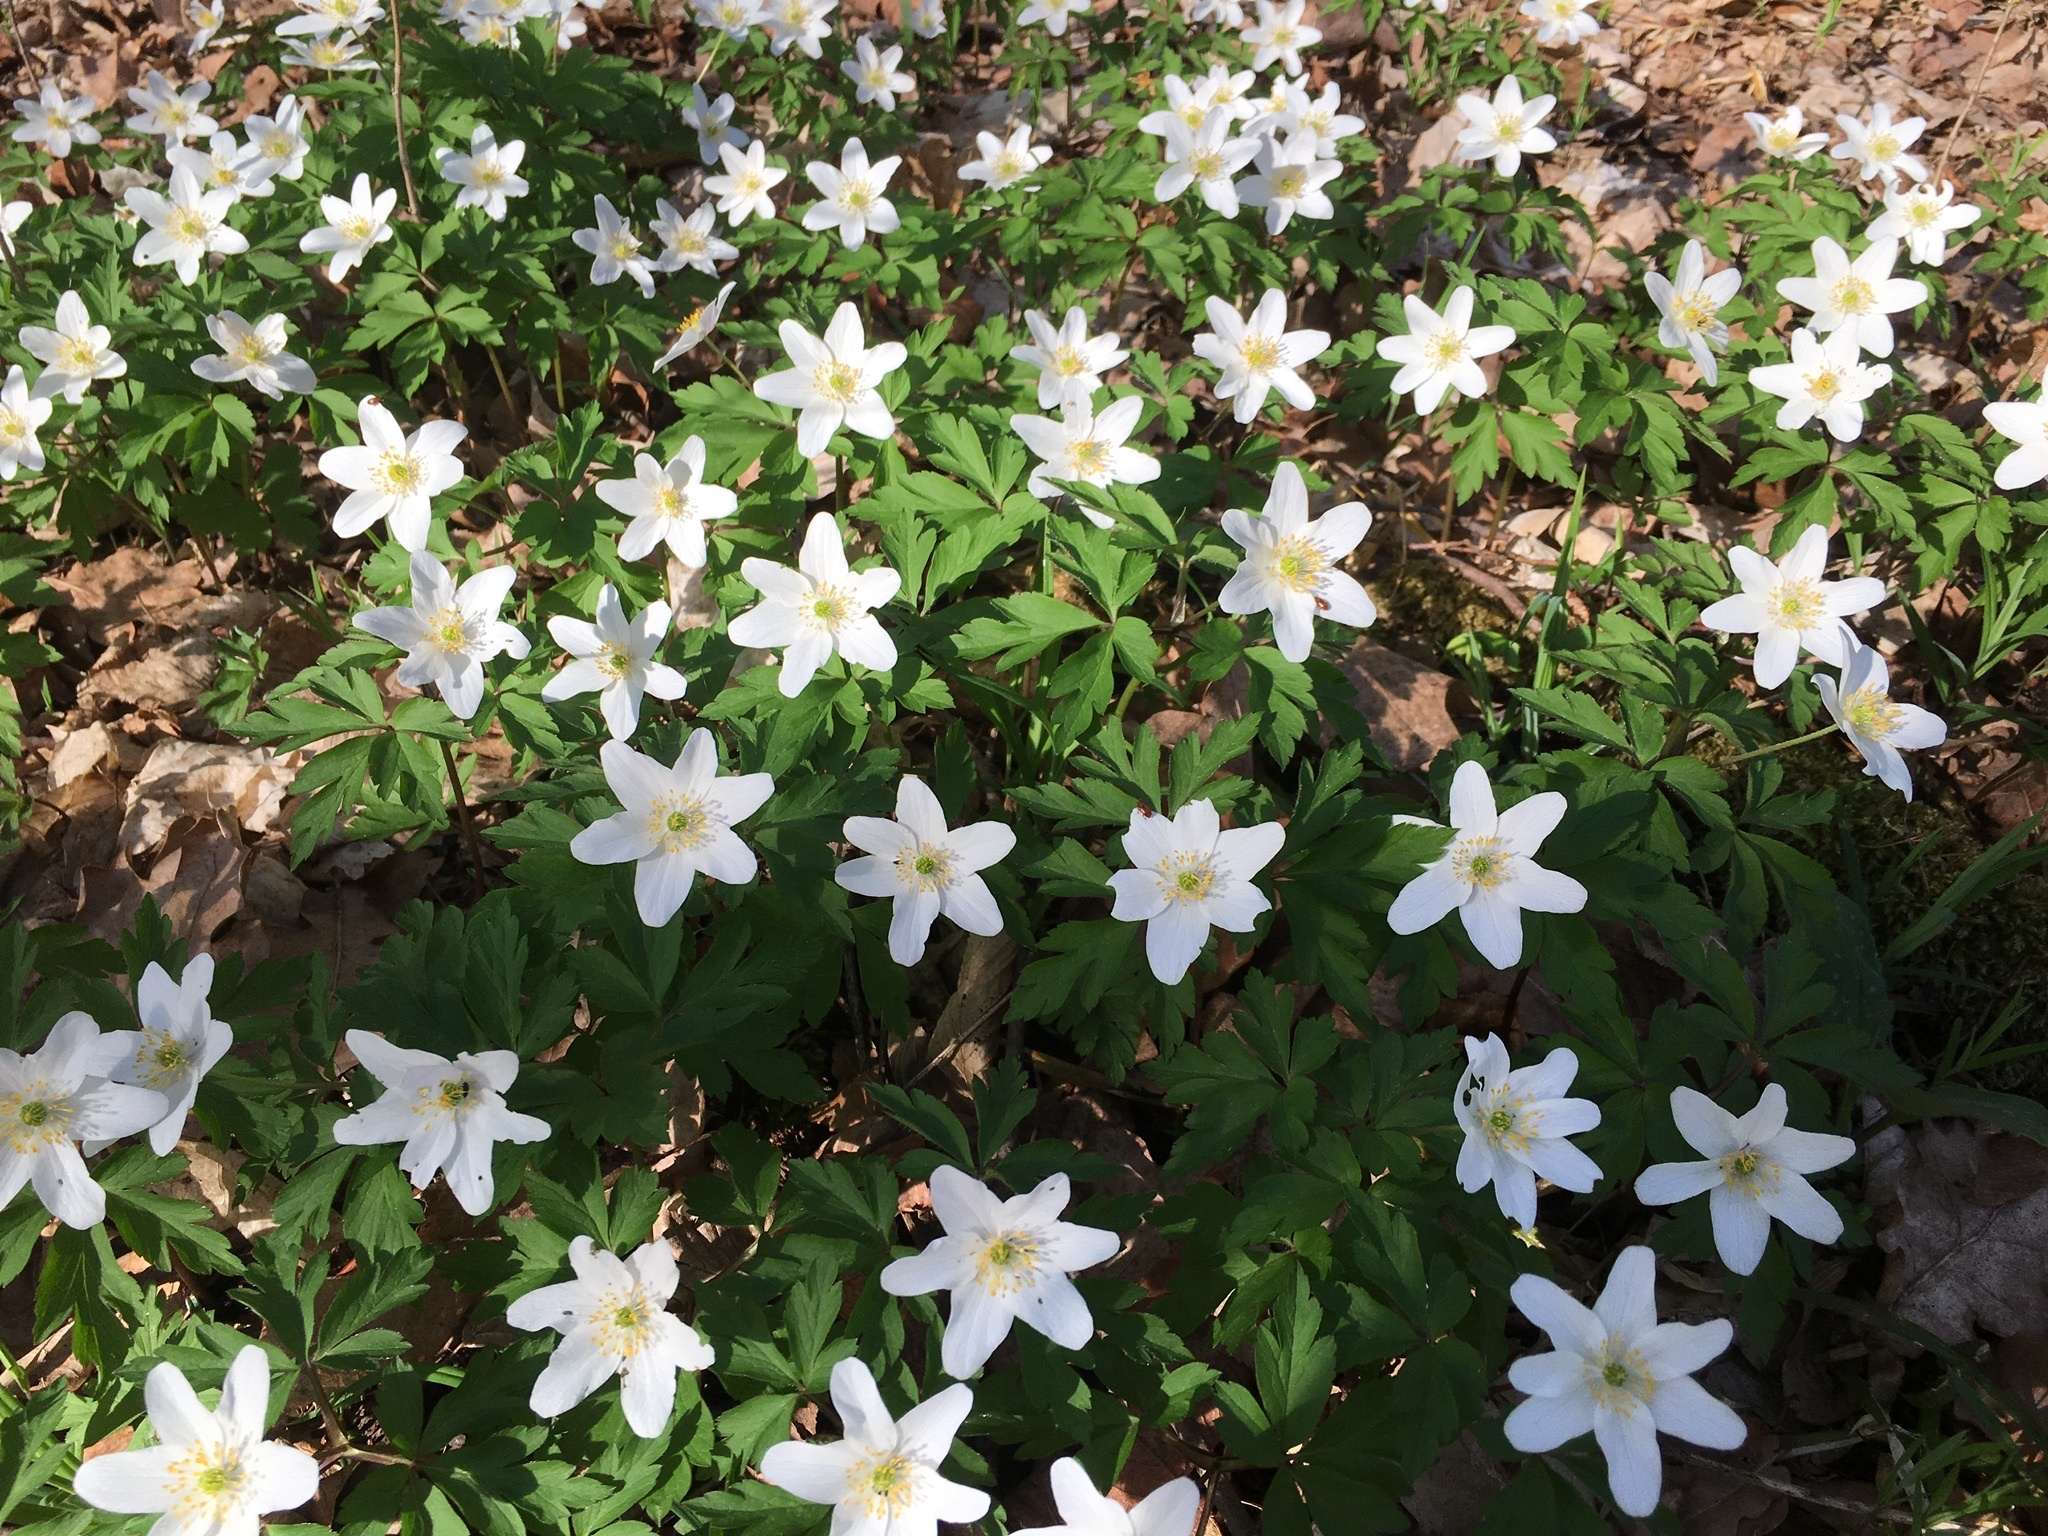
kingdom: Plantae
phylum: Tracheophyta
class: Magnoliopsida
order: Ranunculales
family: Ranunculaceae
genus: Anemone
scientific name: Anemone nemorosa
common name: Wood anemone
